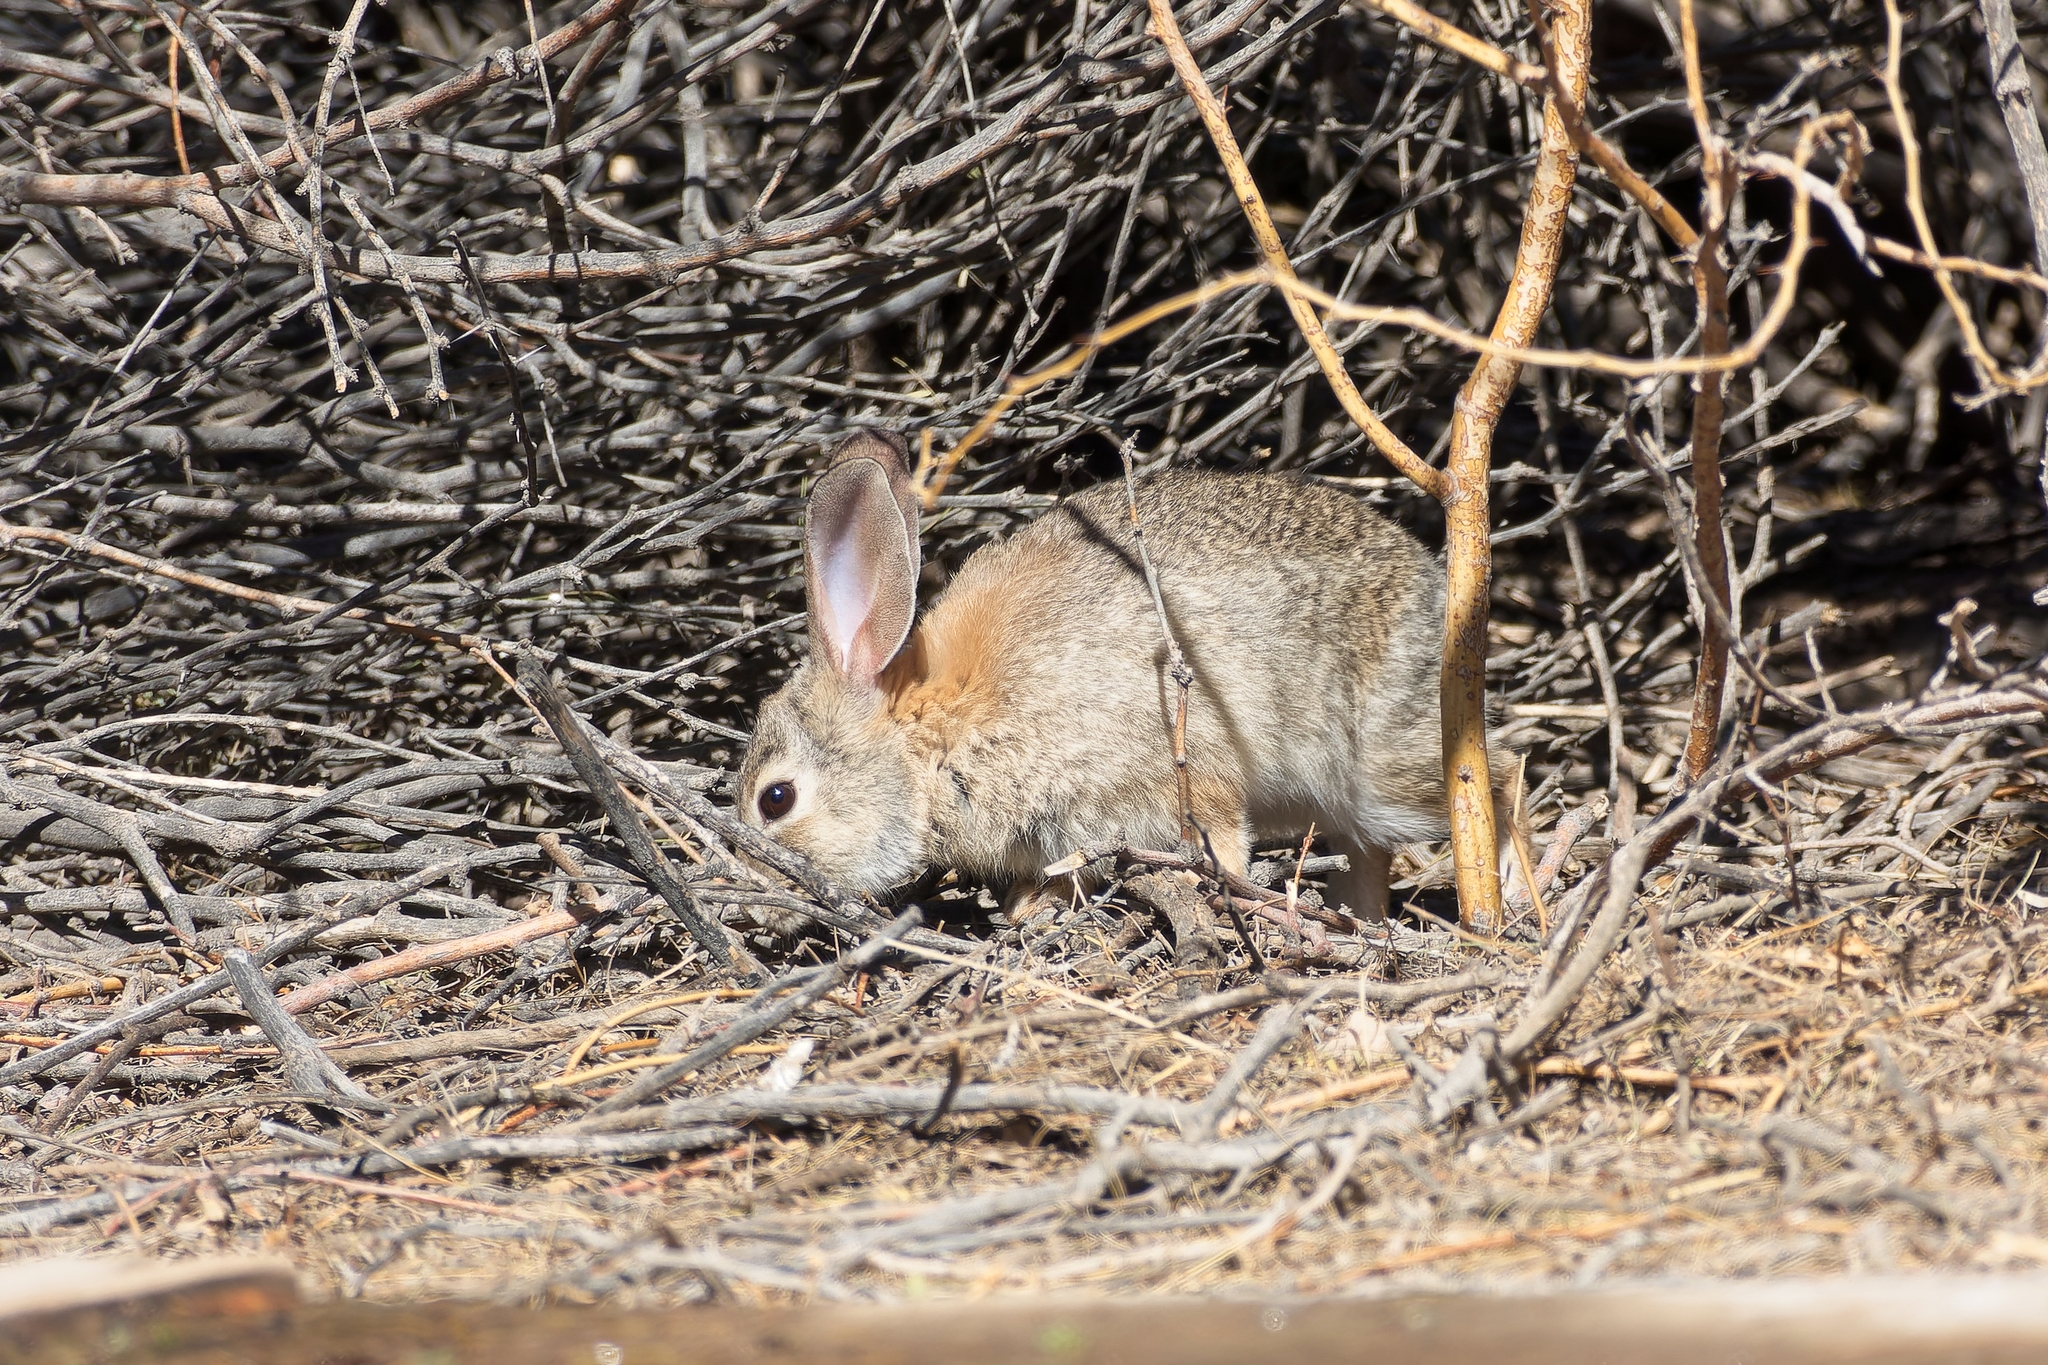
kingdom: Animalia
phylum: Chordata
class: Mammalia
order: Lagomorpha
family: Leporidae
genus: Sylvilagus
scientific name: Sylvilagus audubonii
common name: Desert cottontail
